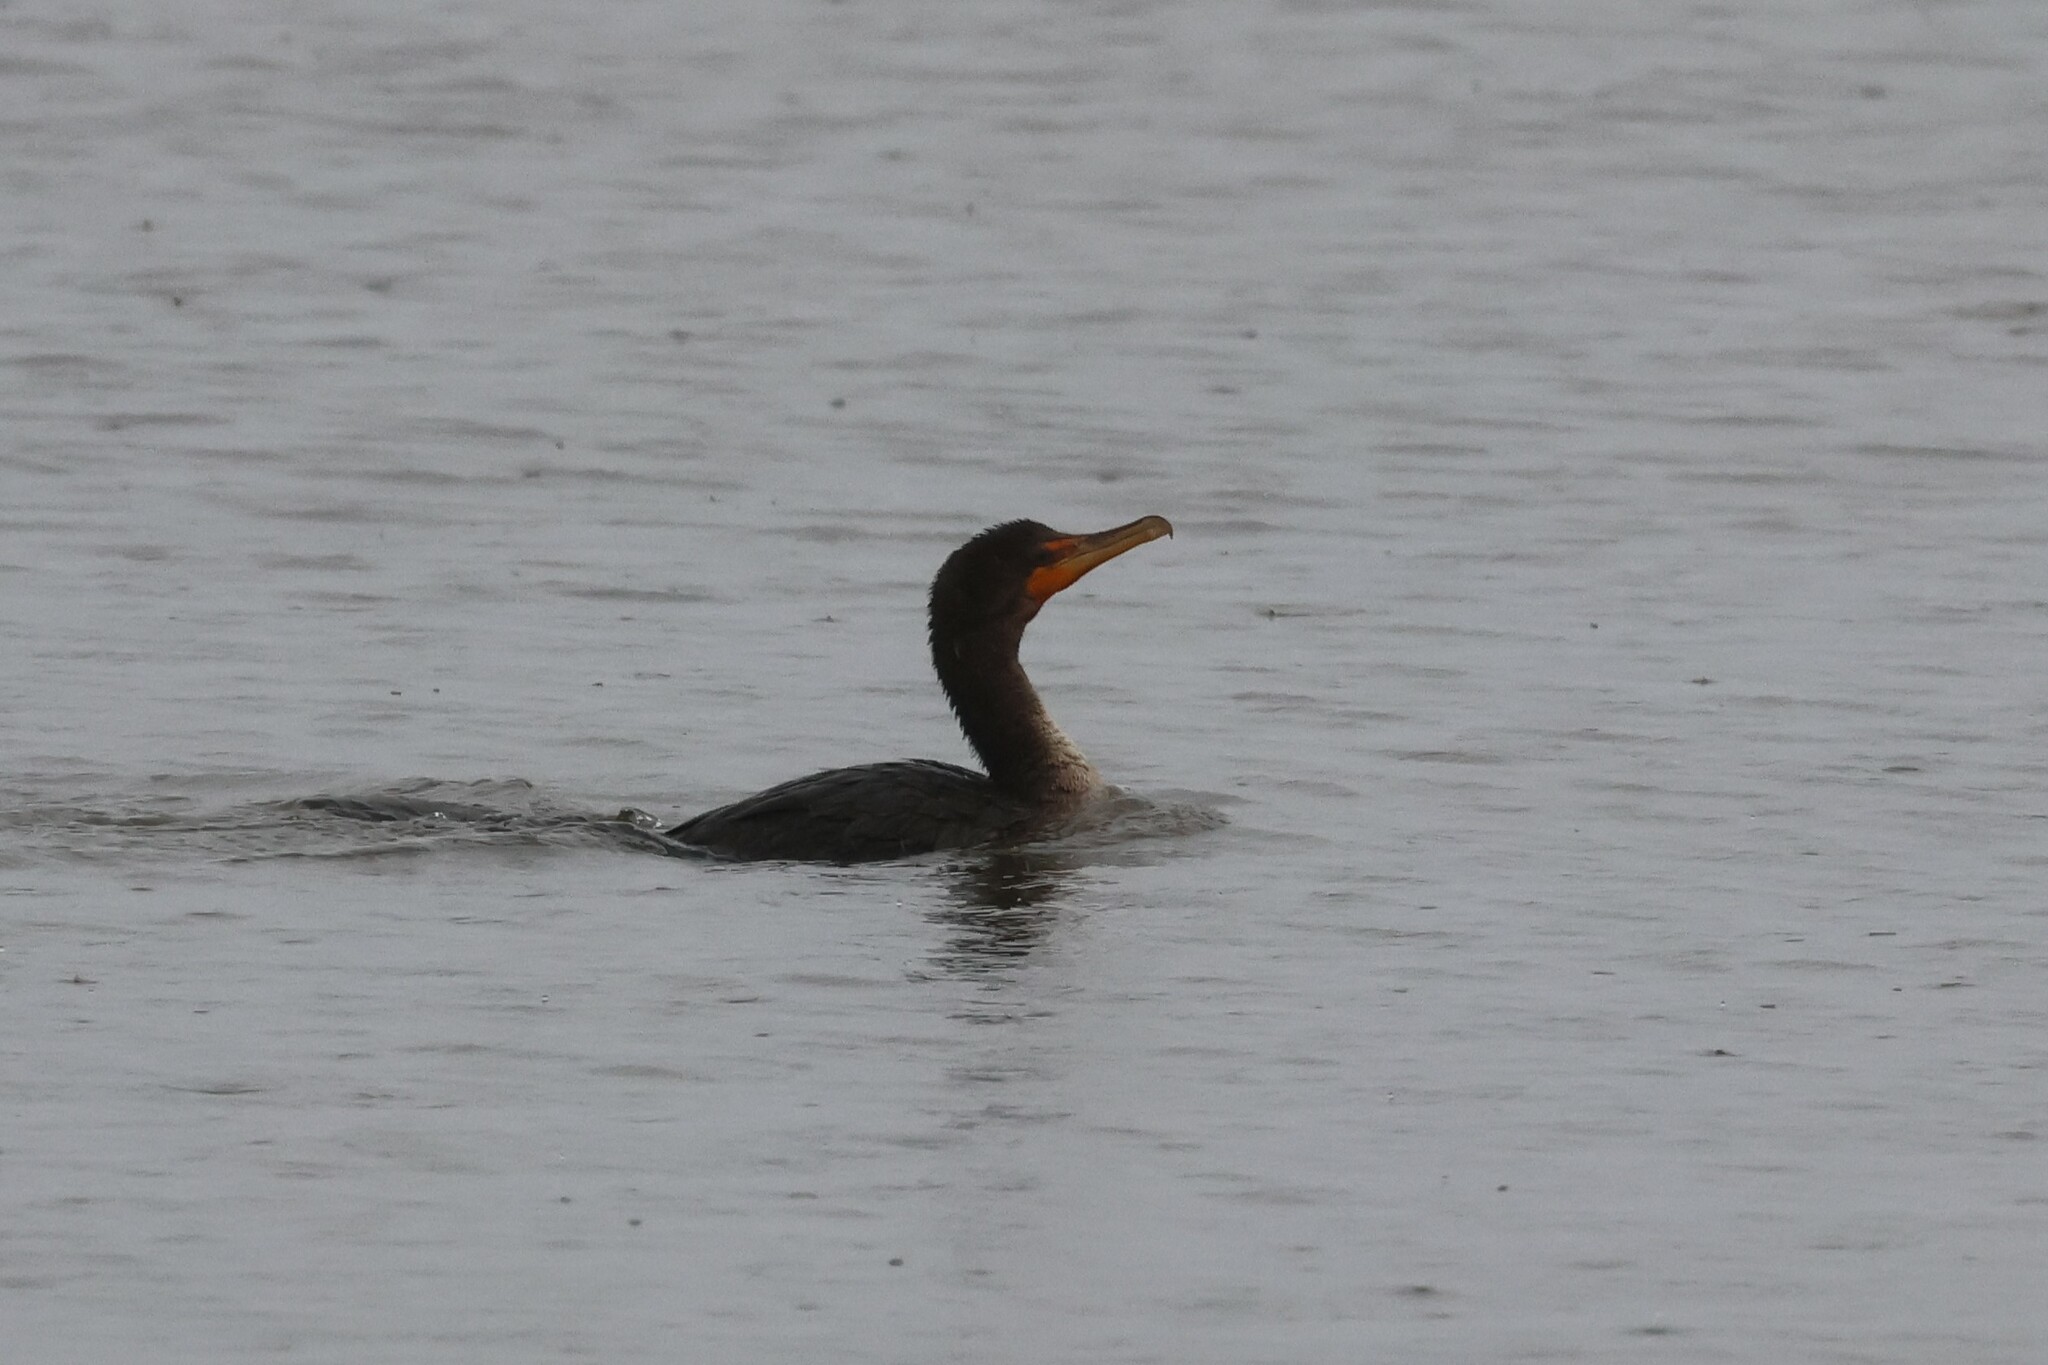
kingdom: Animalia
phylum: Chordata
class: Aves
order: Suliformes
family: Phalacrocoracidae
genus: Phalacrocorax
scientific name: Phalacrocorax auritus
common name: Double-crested cormorant
